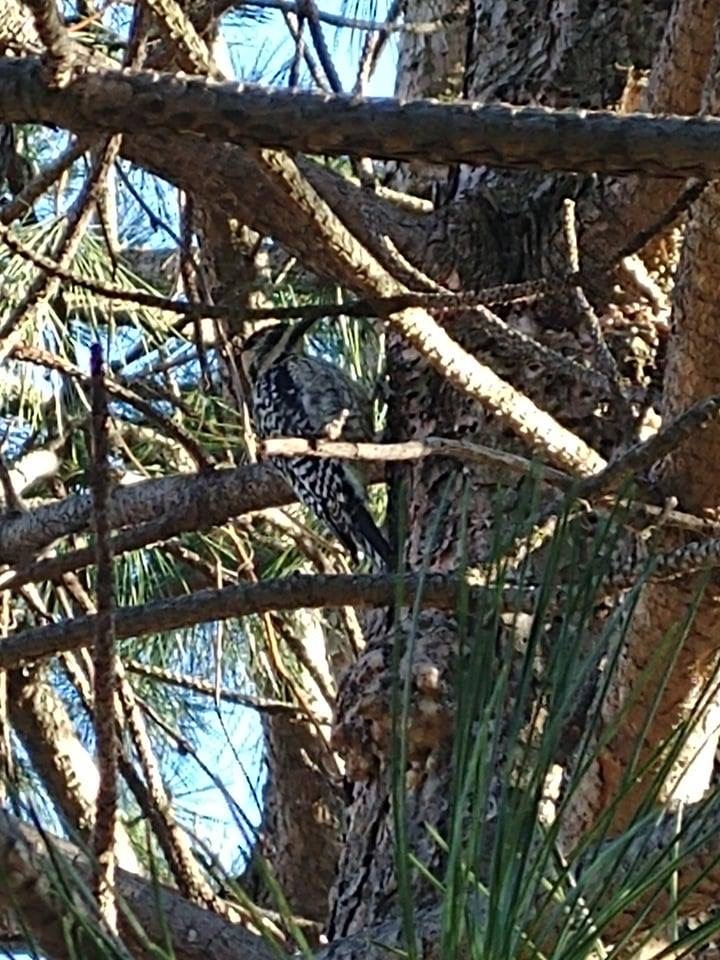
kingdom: Animalia
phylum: Chordata
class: Aves
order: Piciformes
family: Picidae
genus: Sphyrapicus
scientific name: Sphyrapicus varius
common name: Yellow-bellied sapsucker
